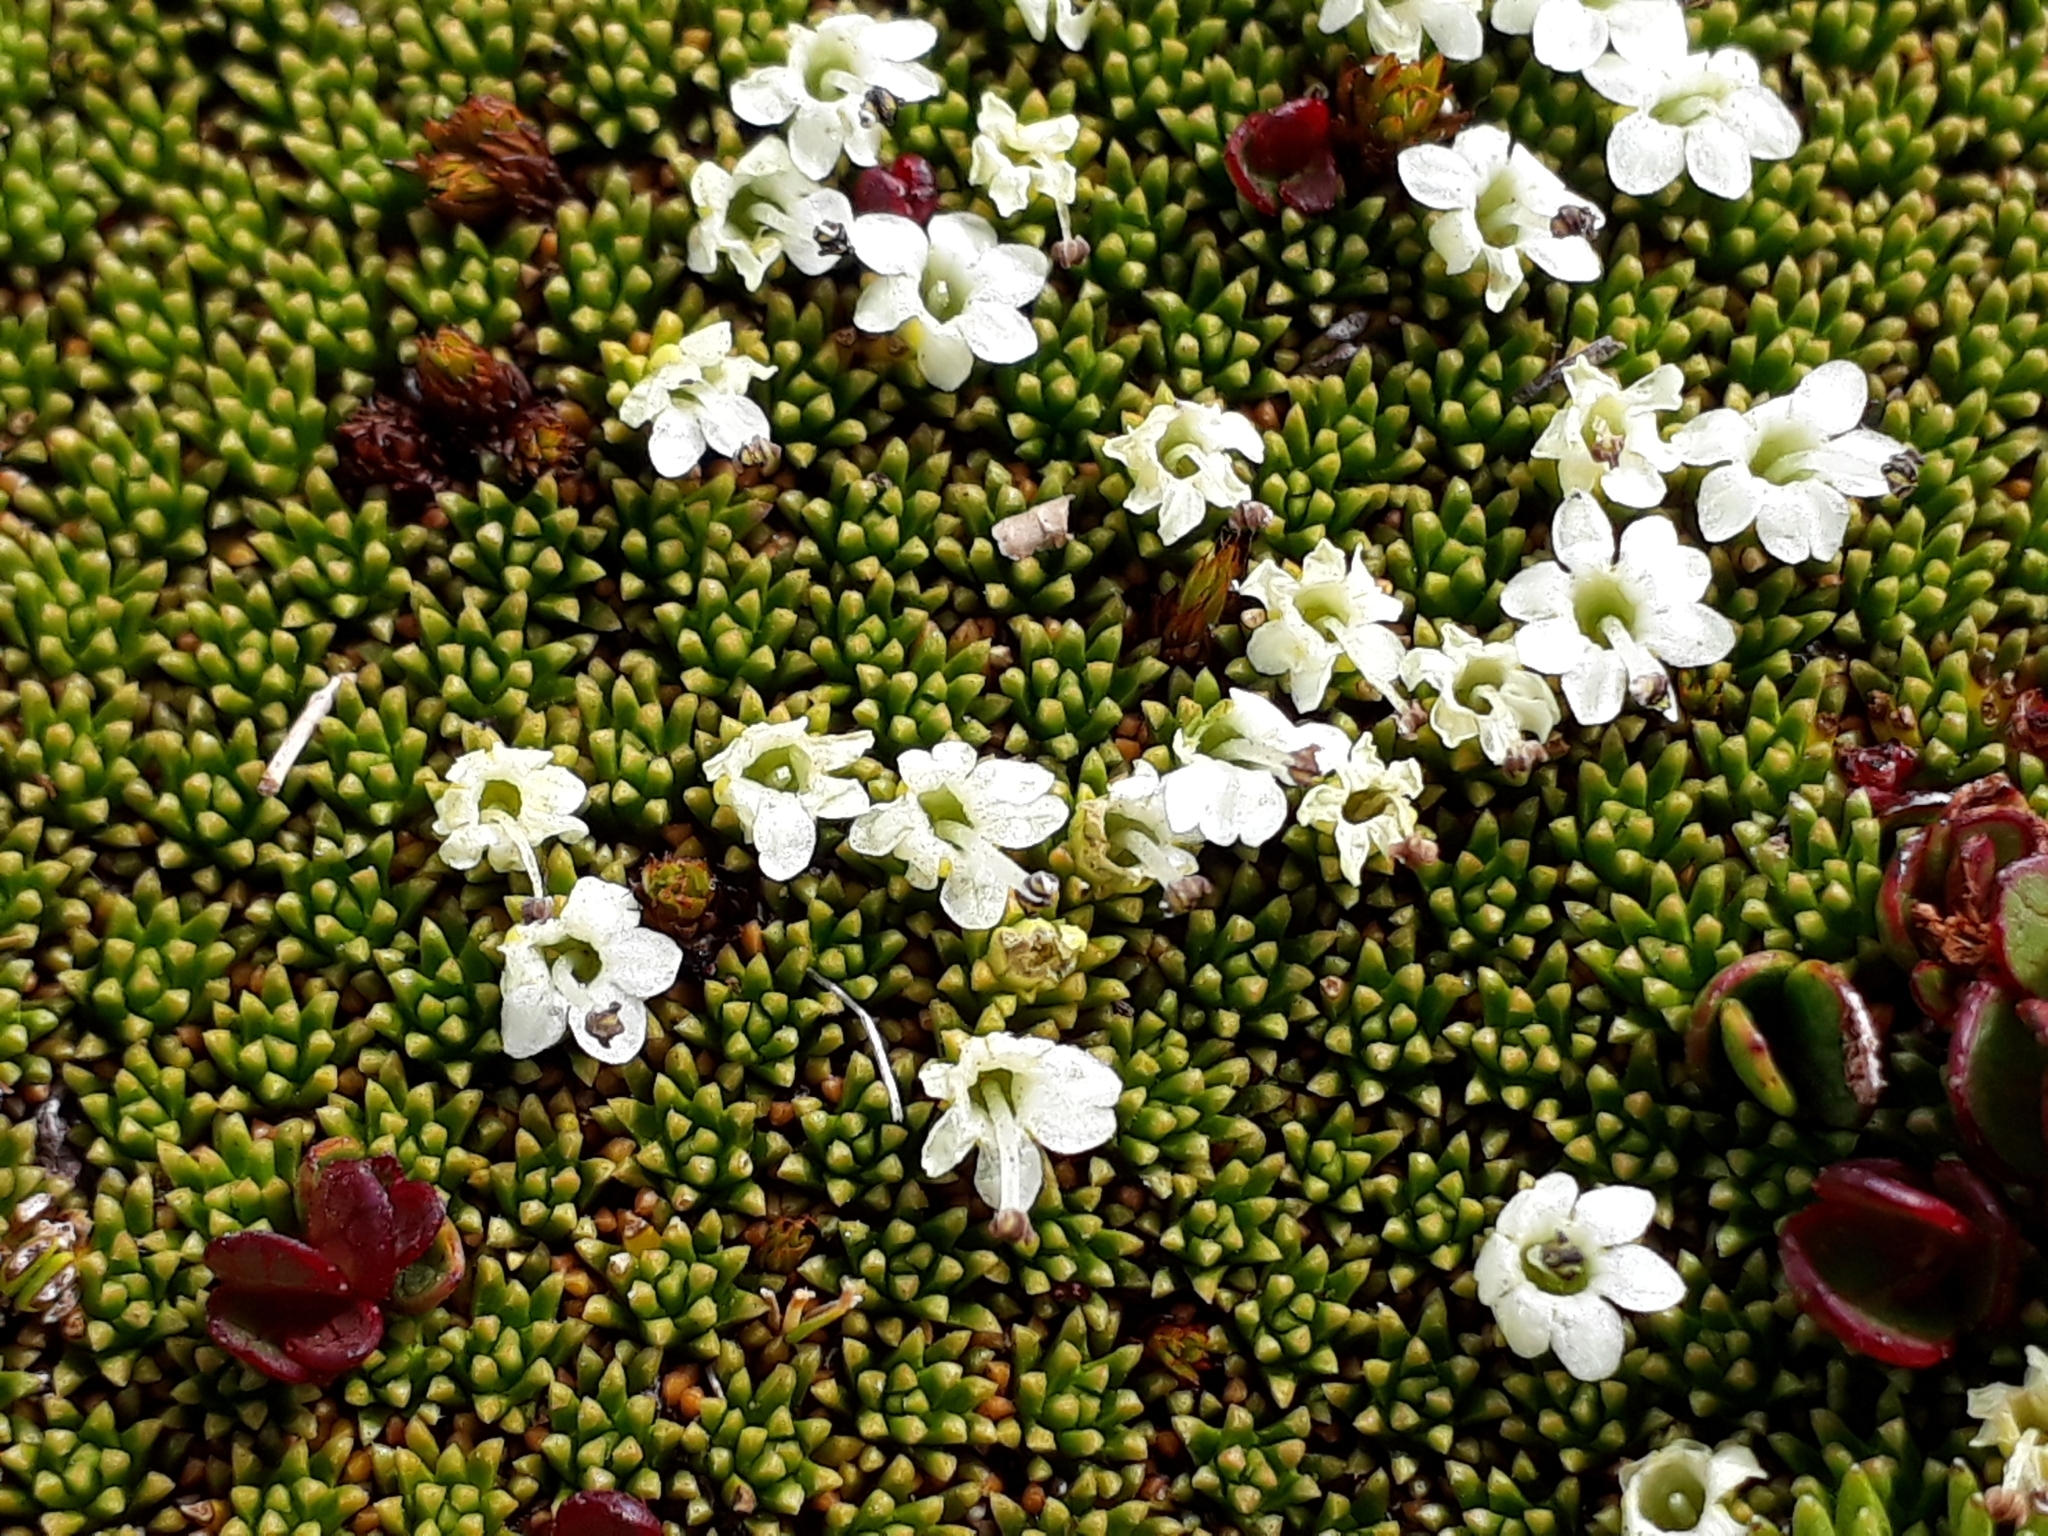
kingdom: Plantae
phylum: Tracheophyta
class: Magnoliopsida
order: Asterales
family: Stylidiaceae
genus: Phyllachne
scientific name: Phyllachne colensoi
